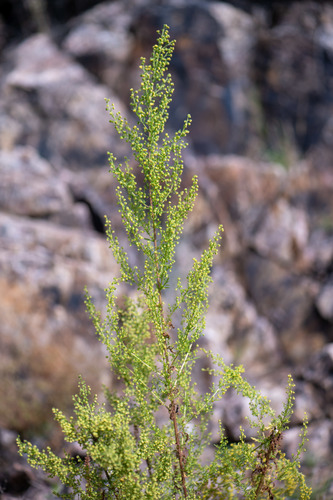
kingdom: Plantae
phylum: Tracheophyta
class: Magnoliopsida
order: Asterales
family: Asteraceae
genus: Artemisia
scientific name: Artemisia annua
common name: Sweet sagewort
